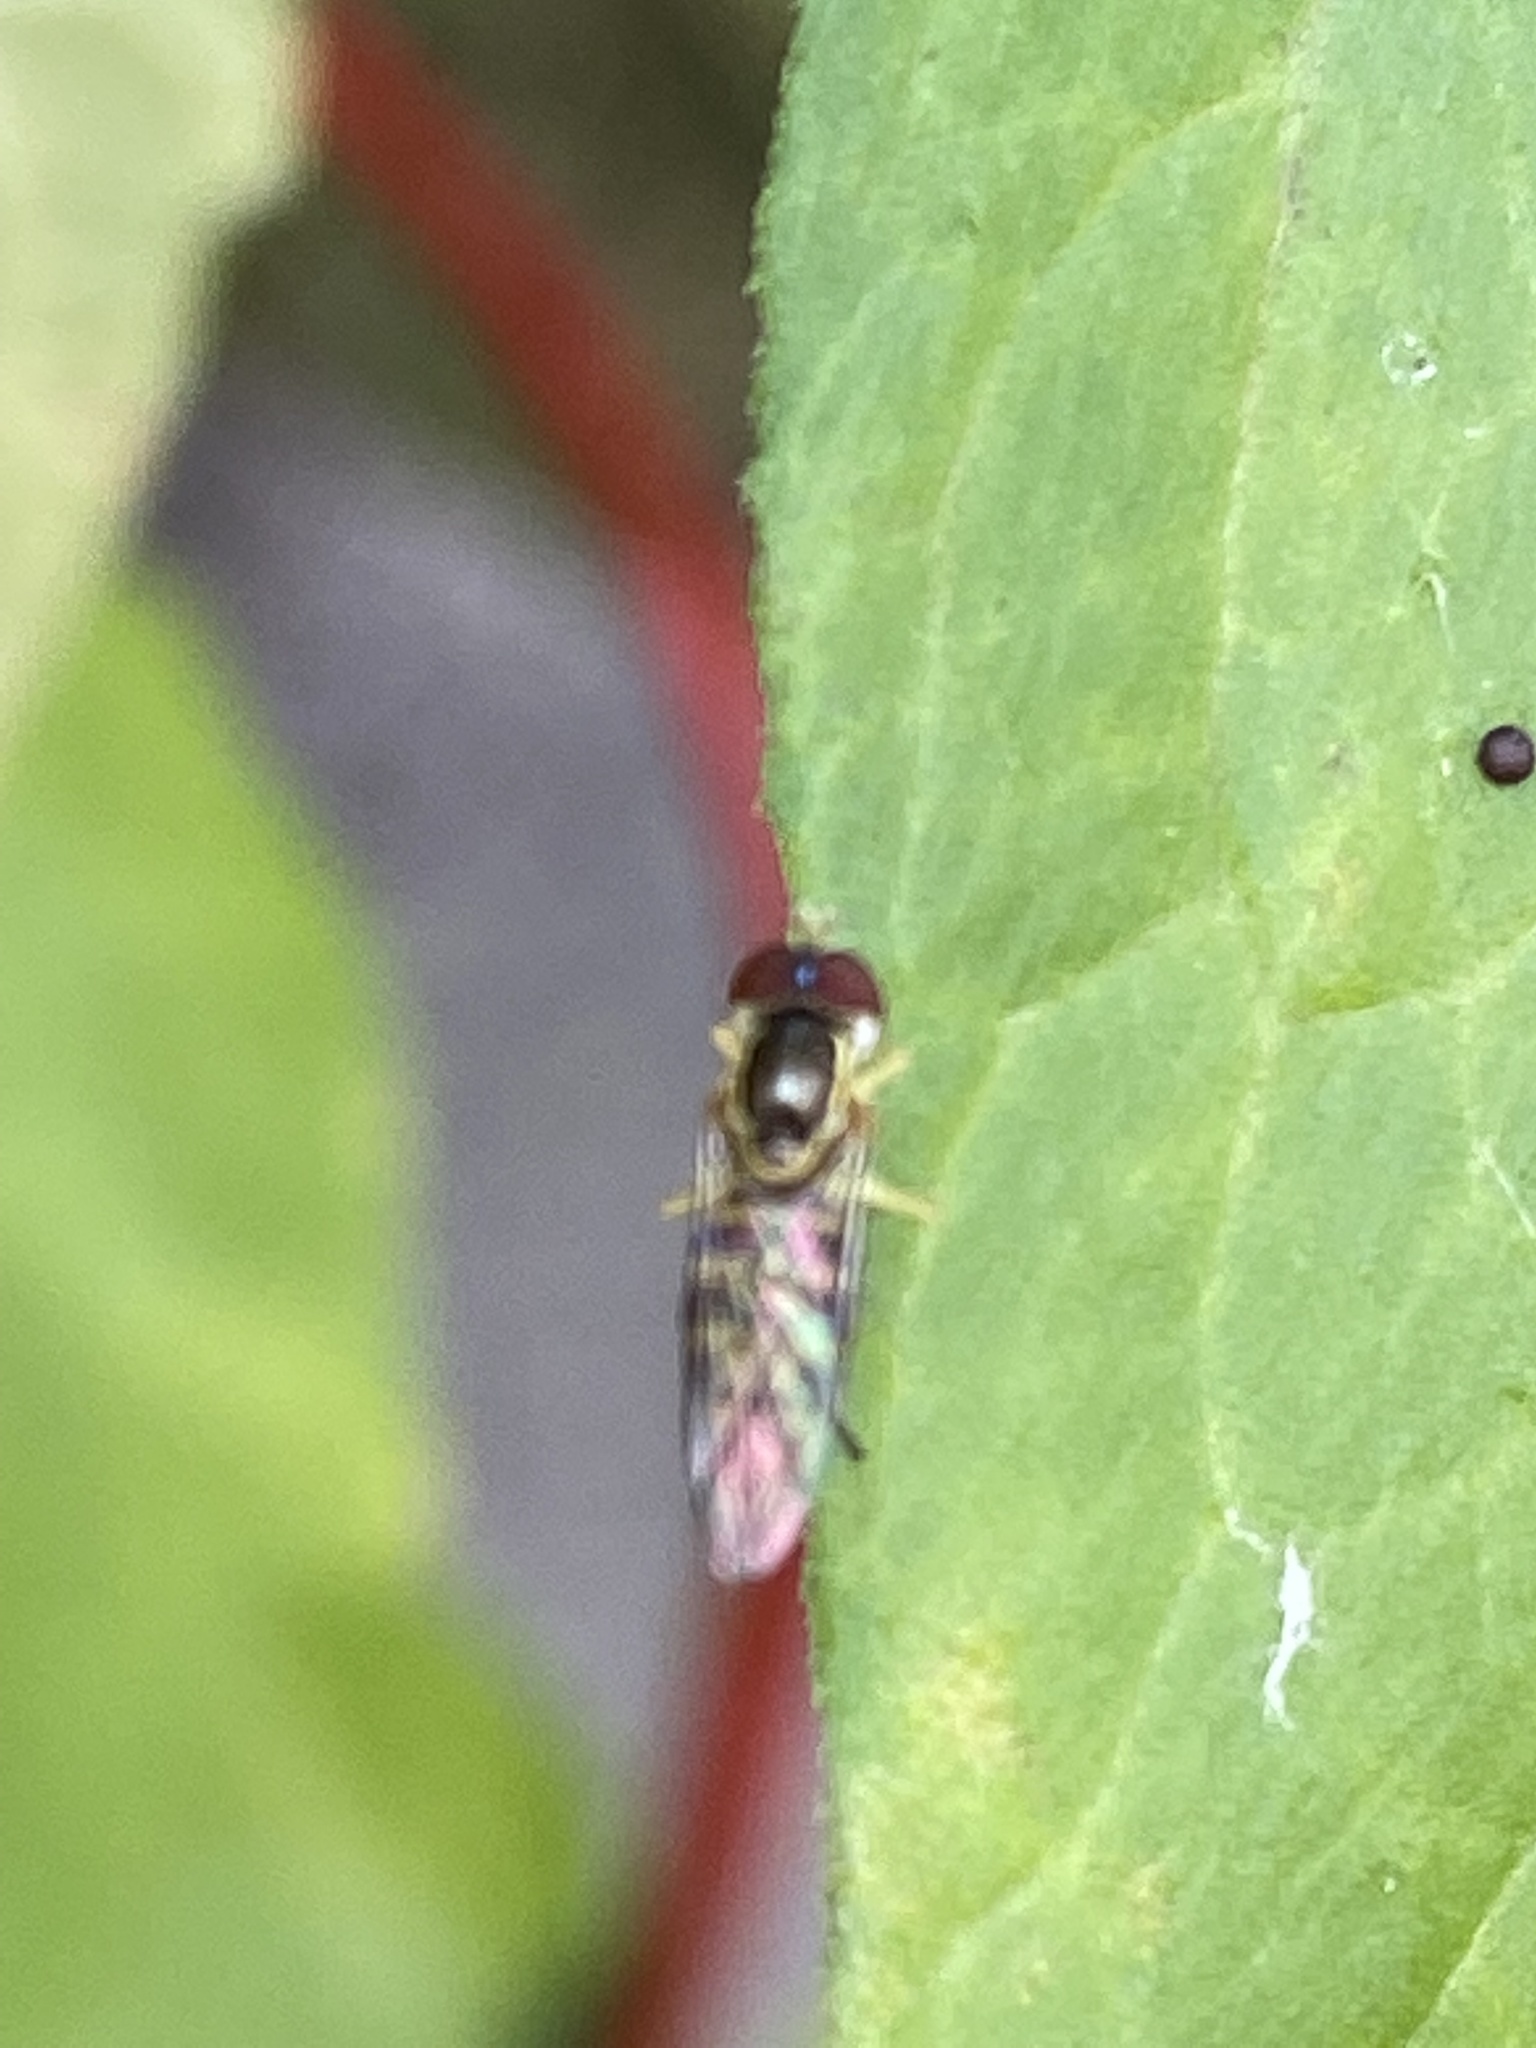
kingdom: Animalia
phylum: Arthropoda
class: Insecta
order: Diptera
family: Syrphidae
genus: Toxomerus
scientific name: Toxomerus geminatus
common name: Eastern calligrapher
